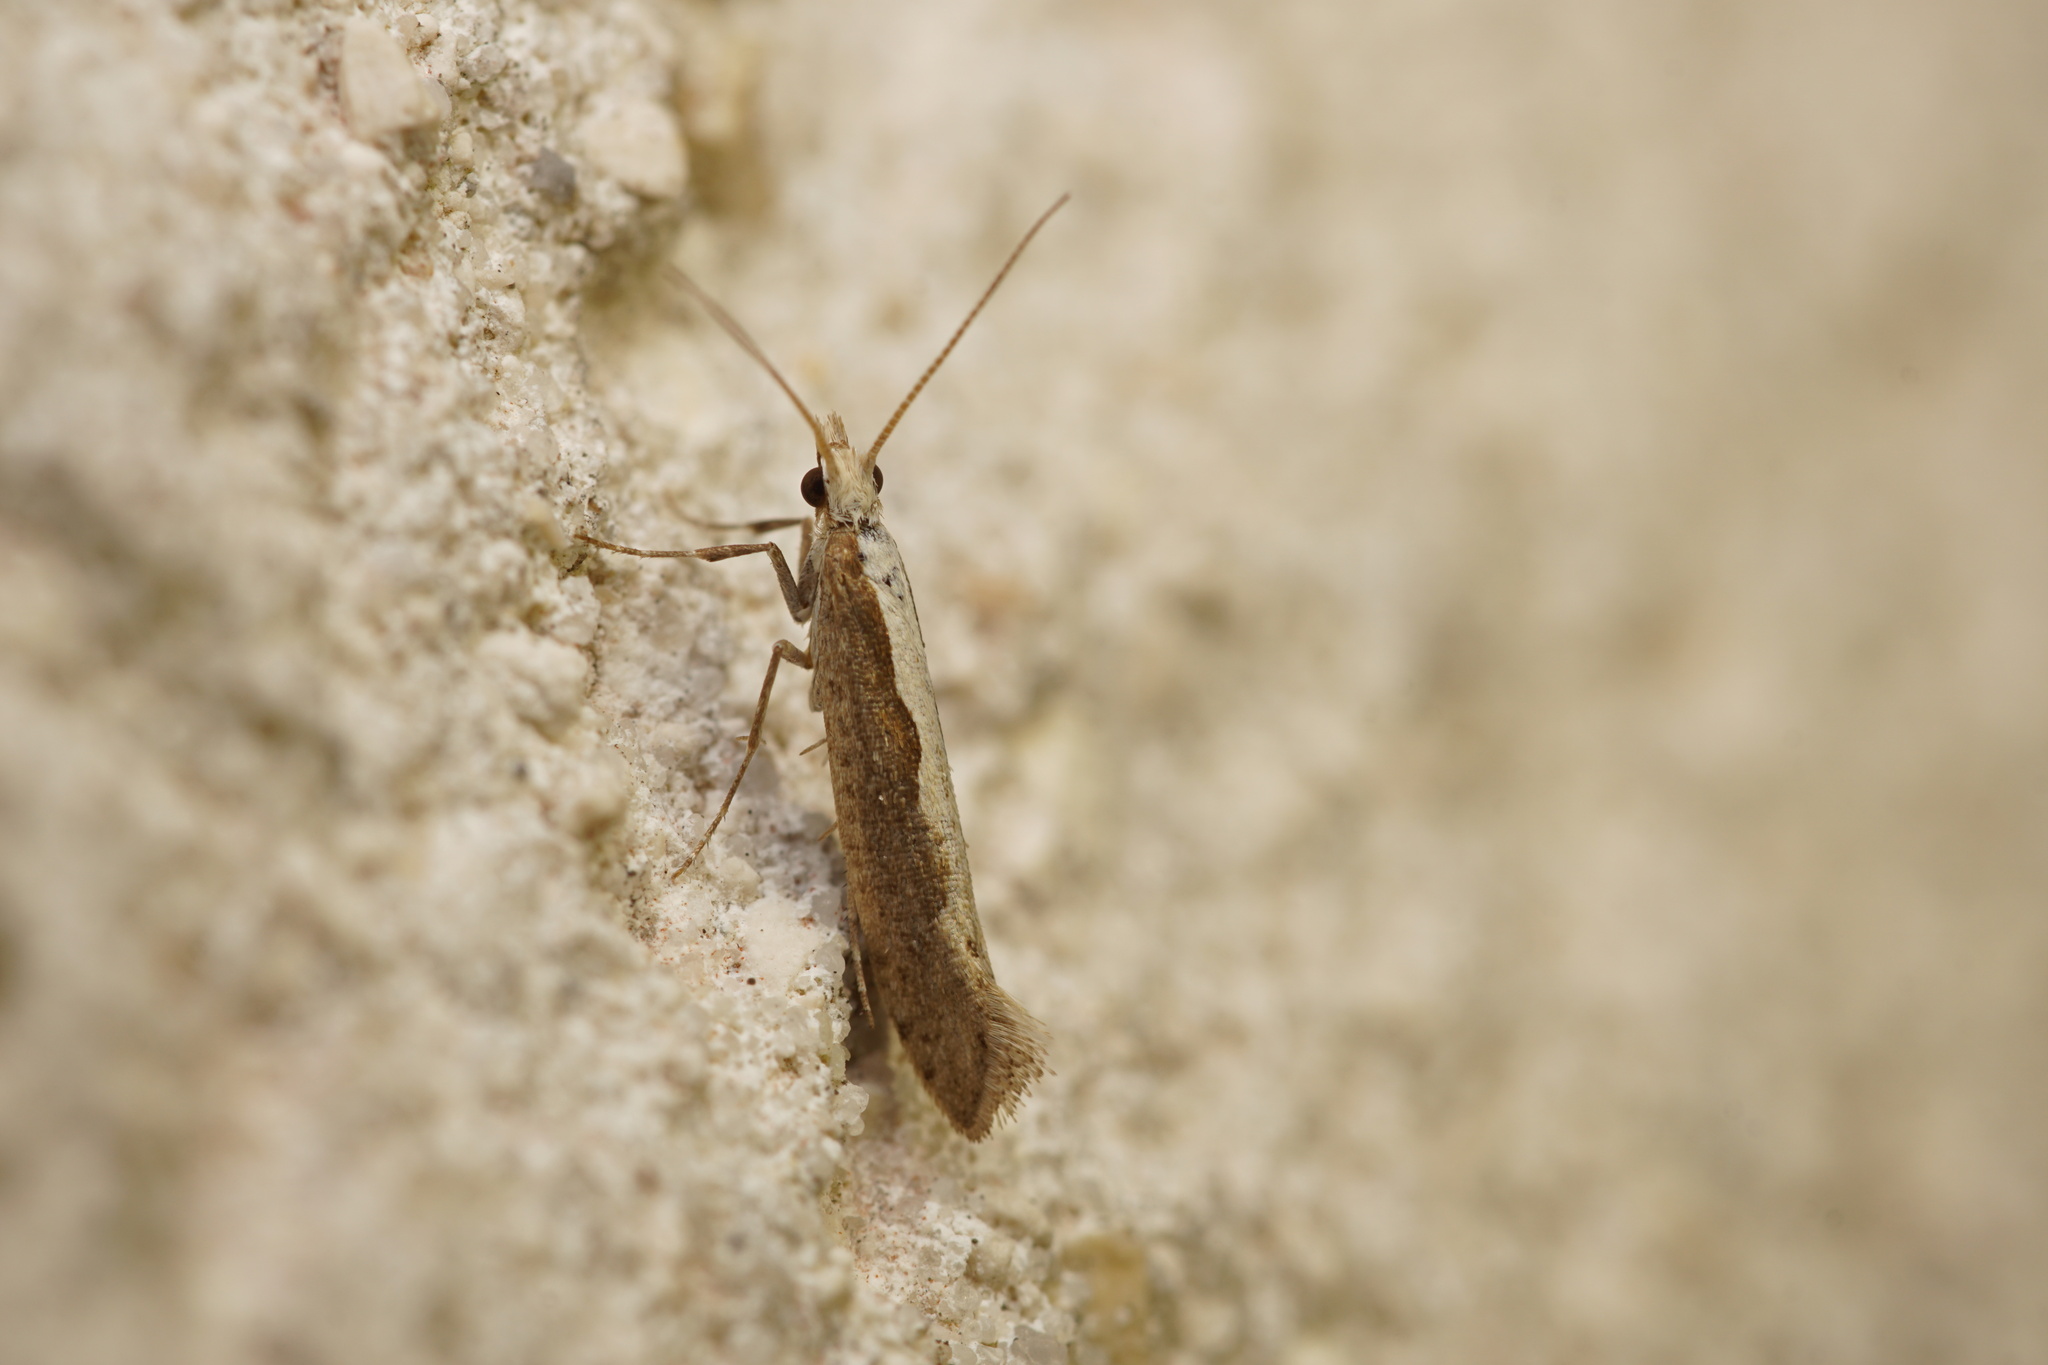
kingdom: Animalia
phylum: Arthropoda
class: Insecta
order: Lepidoptera
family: Plutellidae
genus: Plutella
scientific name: Plutella xylostella
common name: Diamond-back moth
